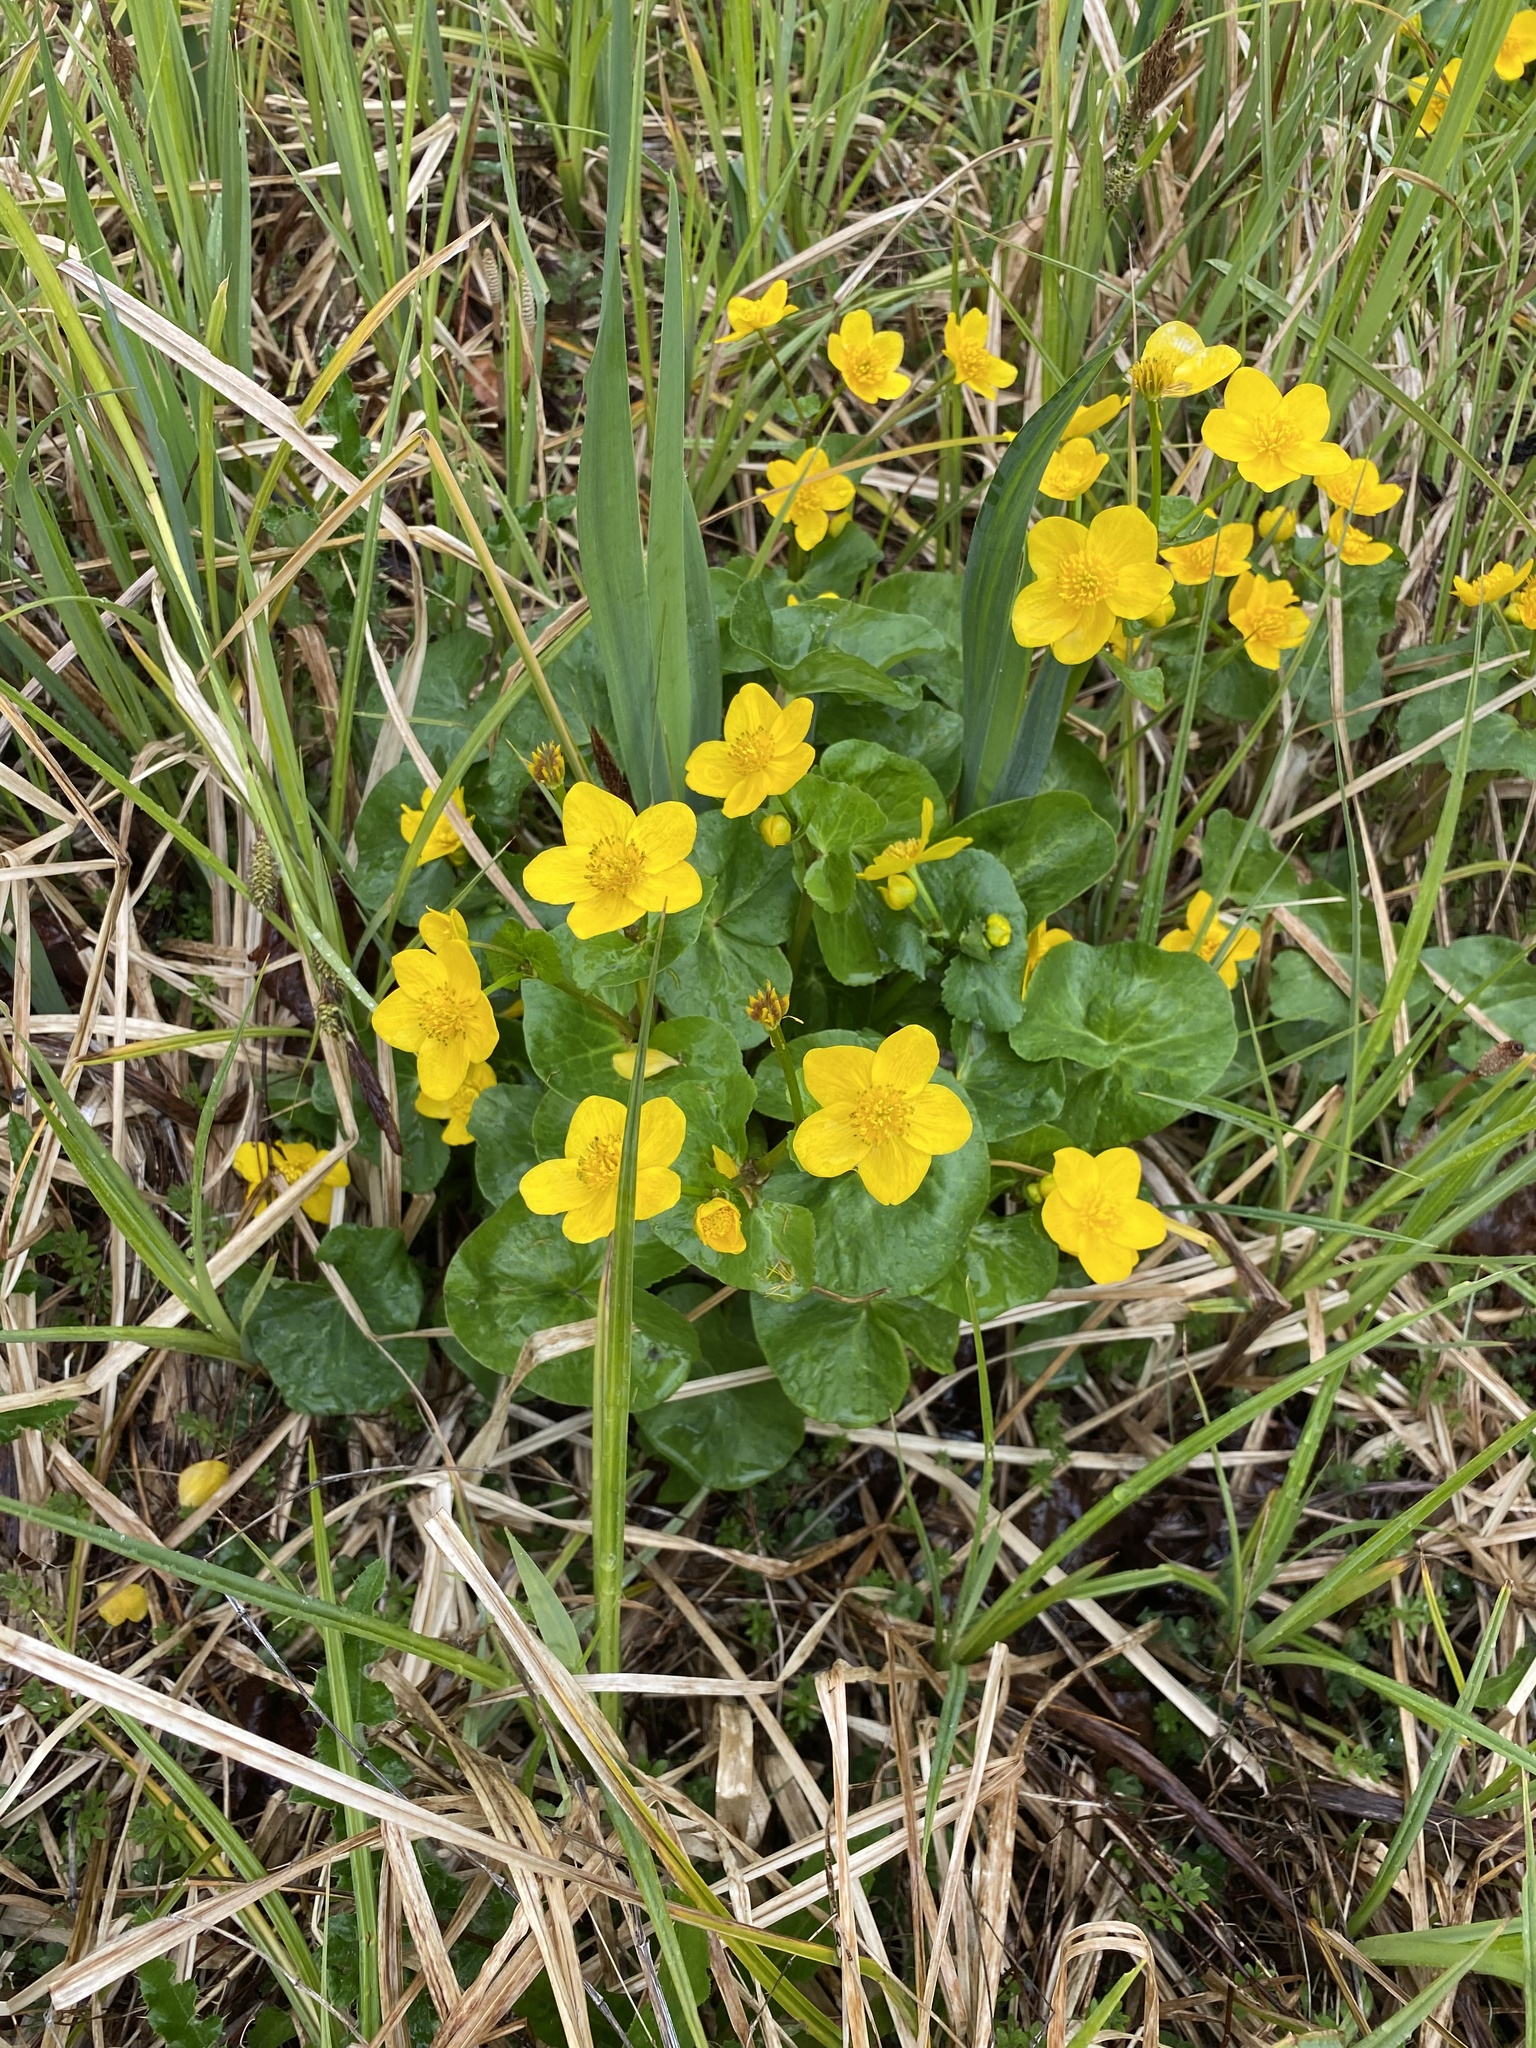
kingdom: Plantae
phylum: Tracheophyta
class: Magnoliopsida
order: Ranunculales
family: Ranunculaceae
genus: Caltha
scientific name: Caltha palustris
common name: Marsh marigold
